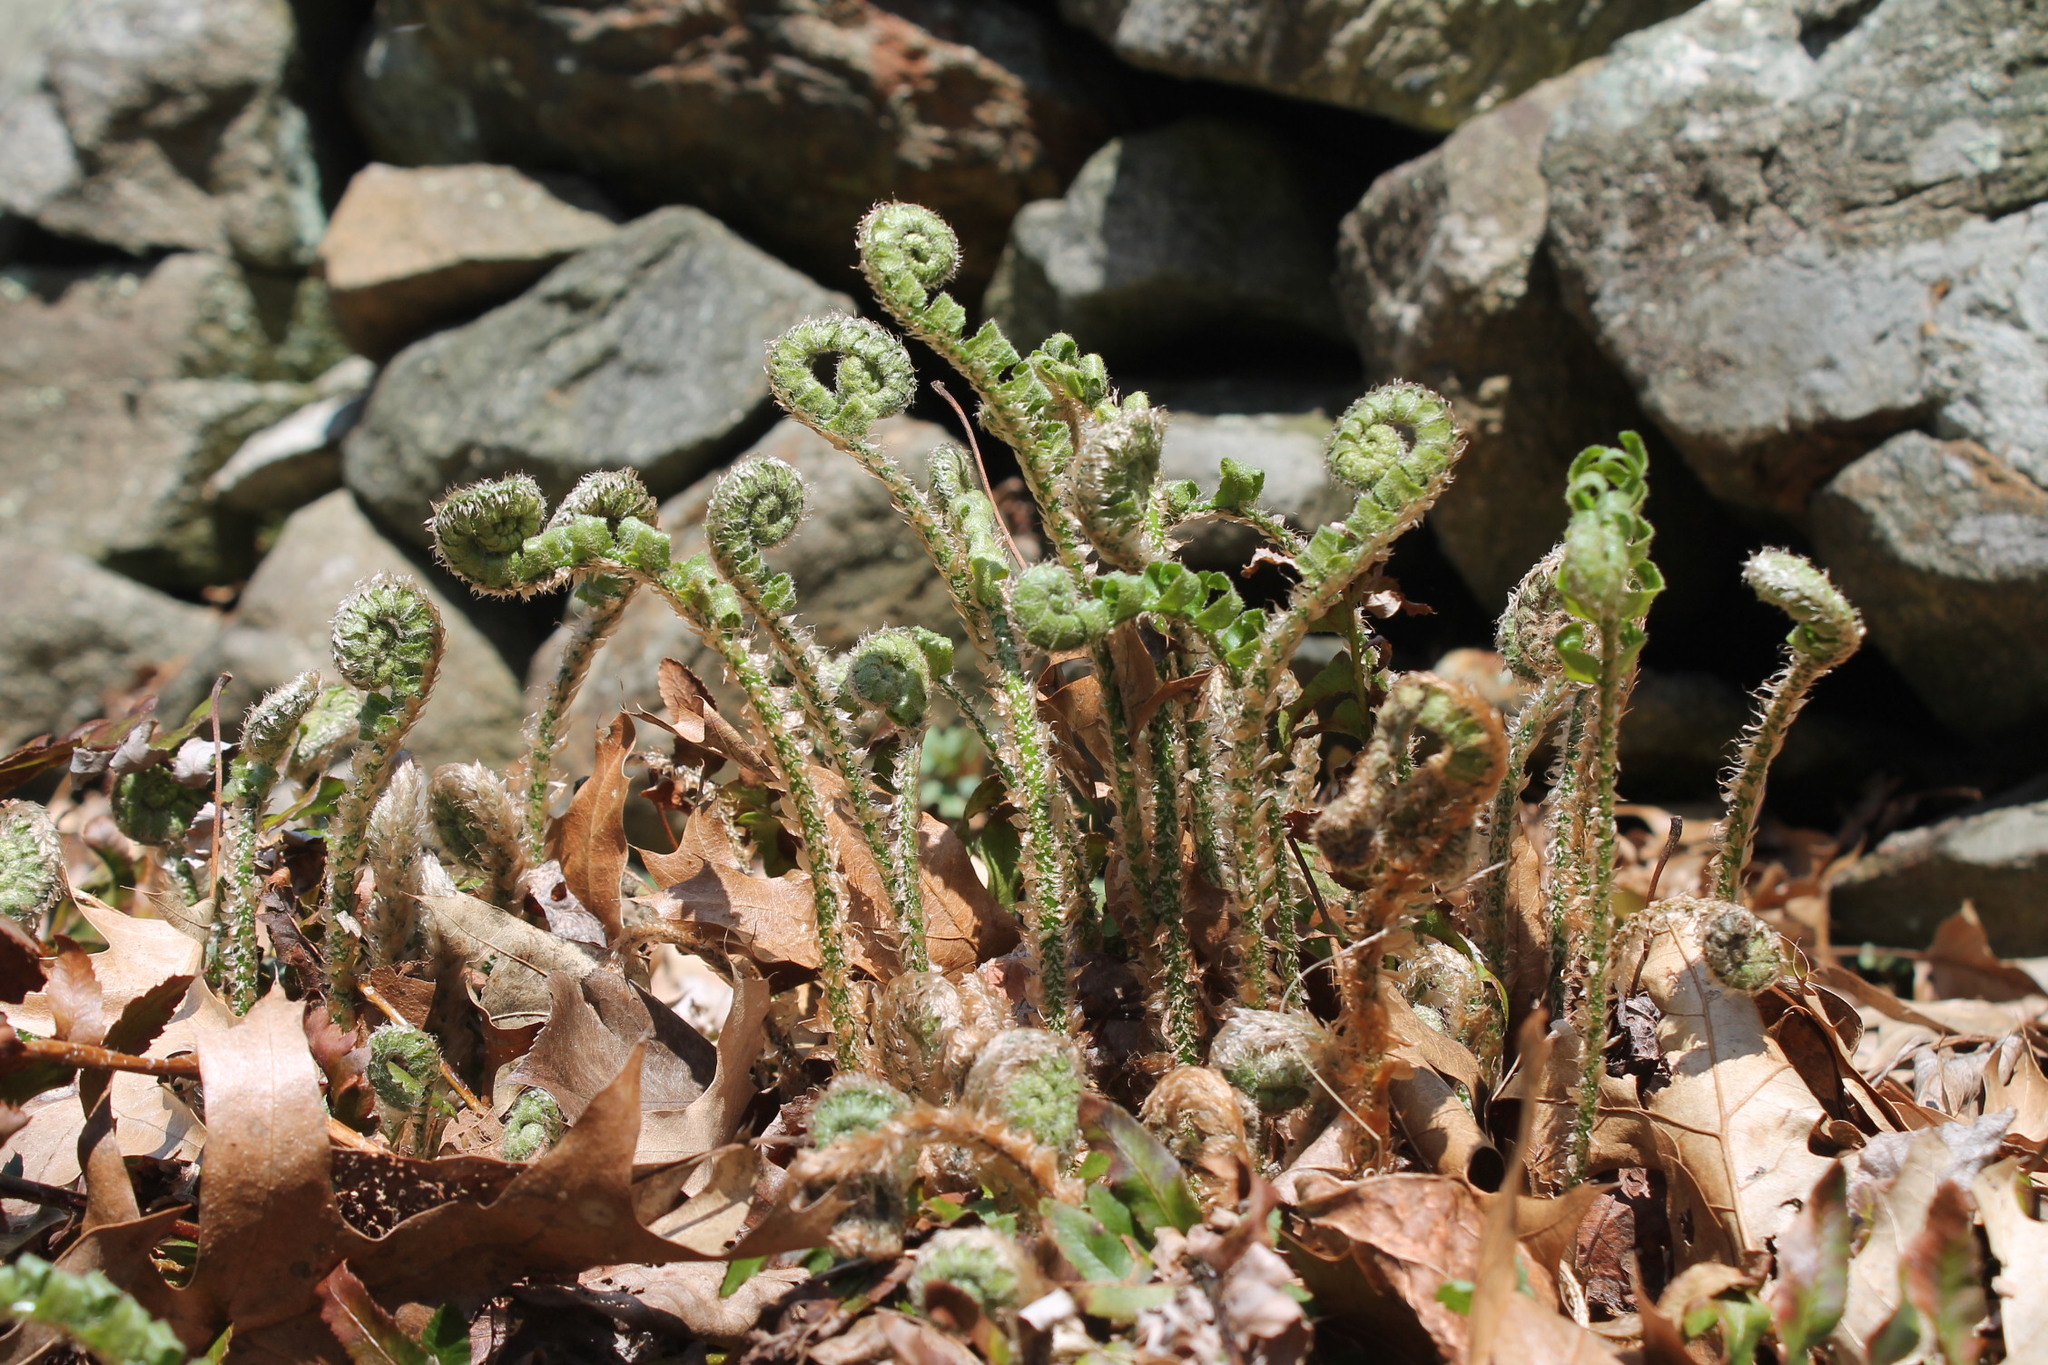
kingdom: Plantae
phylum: Tracheophyta
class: Polypodiopsida
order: Polypodiales
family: Dryopteridaceae
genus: Polystichum
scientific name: Polystichum acrostichoides
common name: Christmas fern
